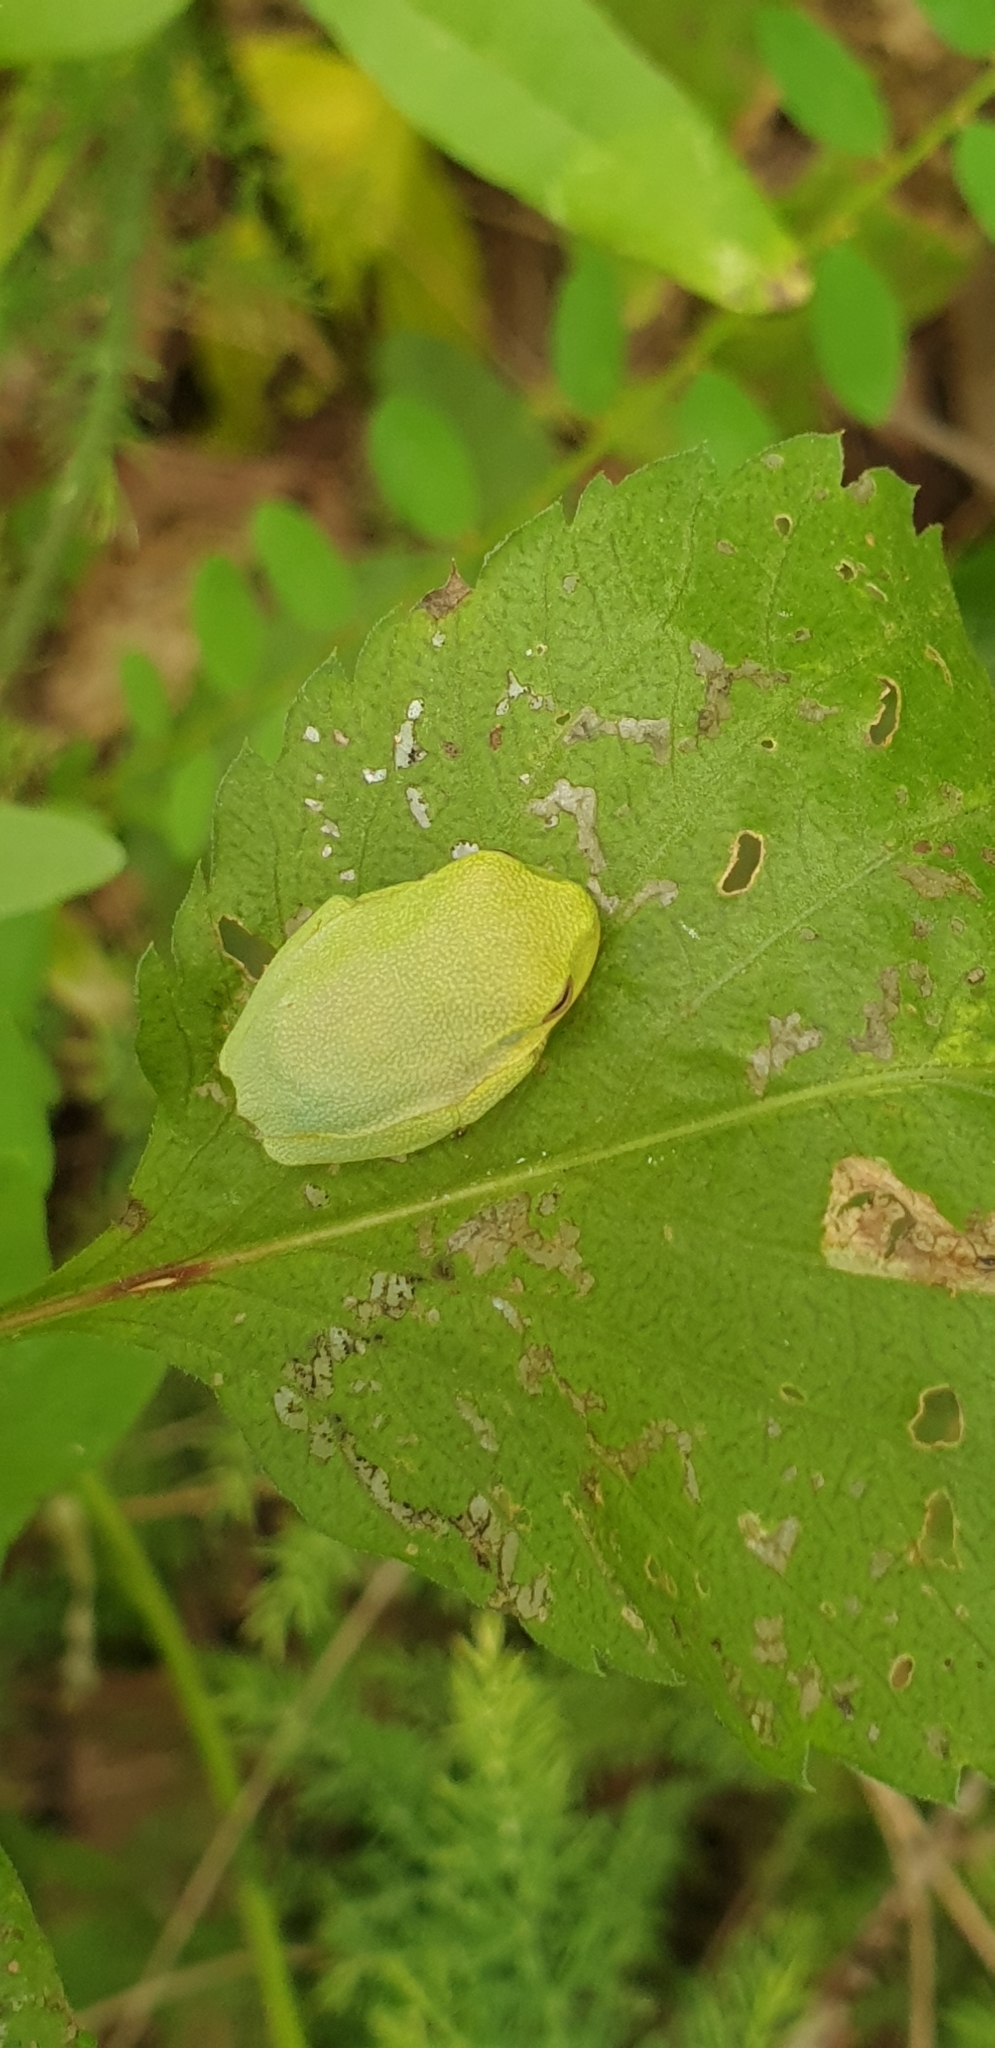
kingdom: Animalia
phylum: Chordata
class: Amphibia
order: Anura
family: Pelodryadidae
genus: Ranoidea
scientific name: Ranoidea gracilenta
